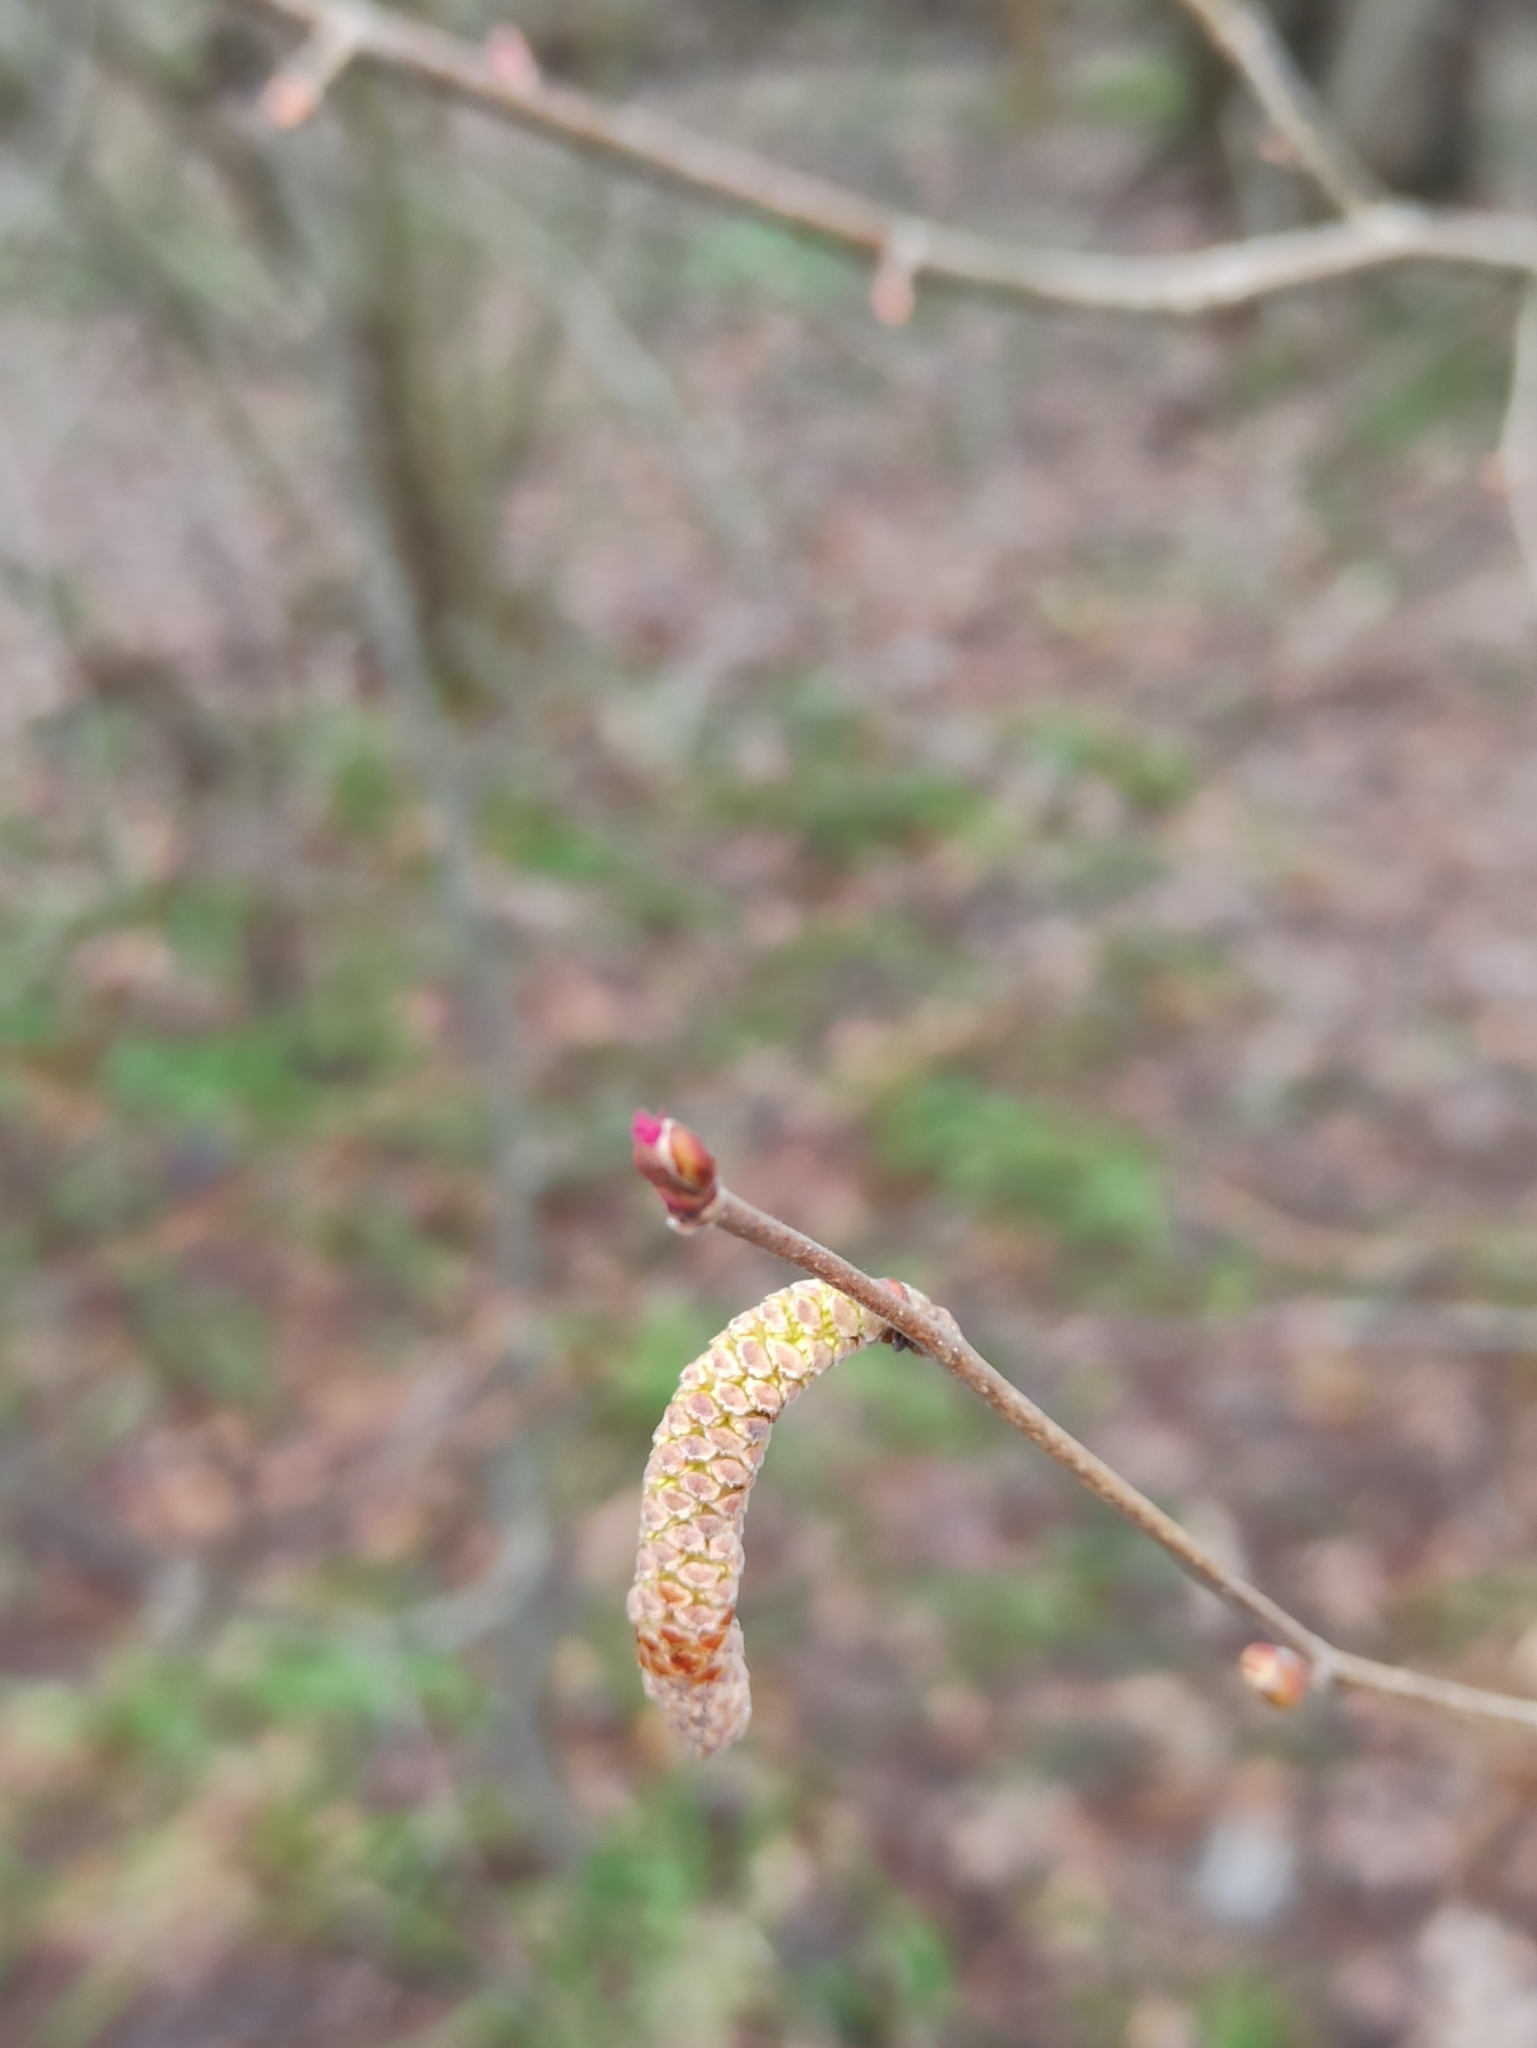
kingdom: Plantae
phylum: Tracheophyta
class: Magnoliopsida
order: Fagales
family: Betulaceae
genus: Corylus
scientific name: Corylus avellana
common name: European hazel
